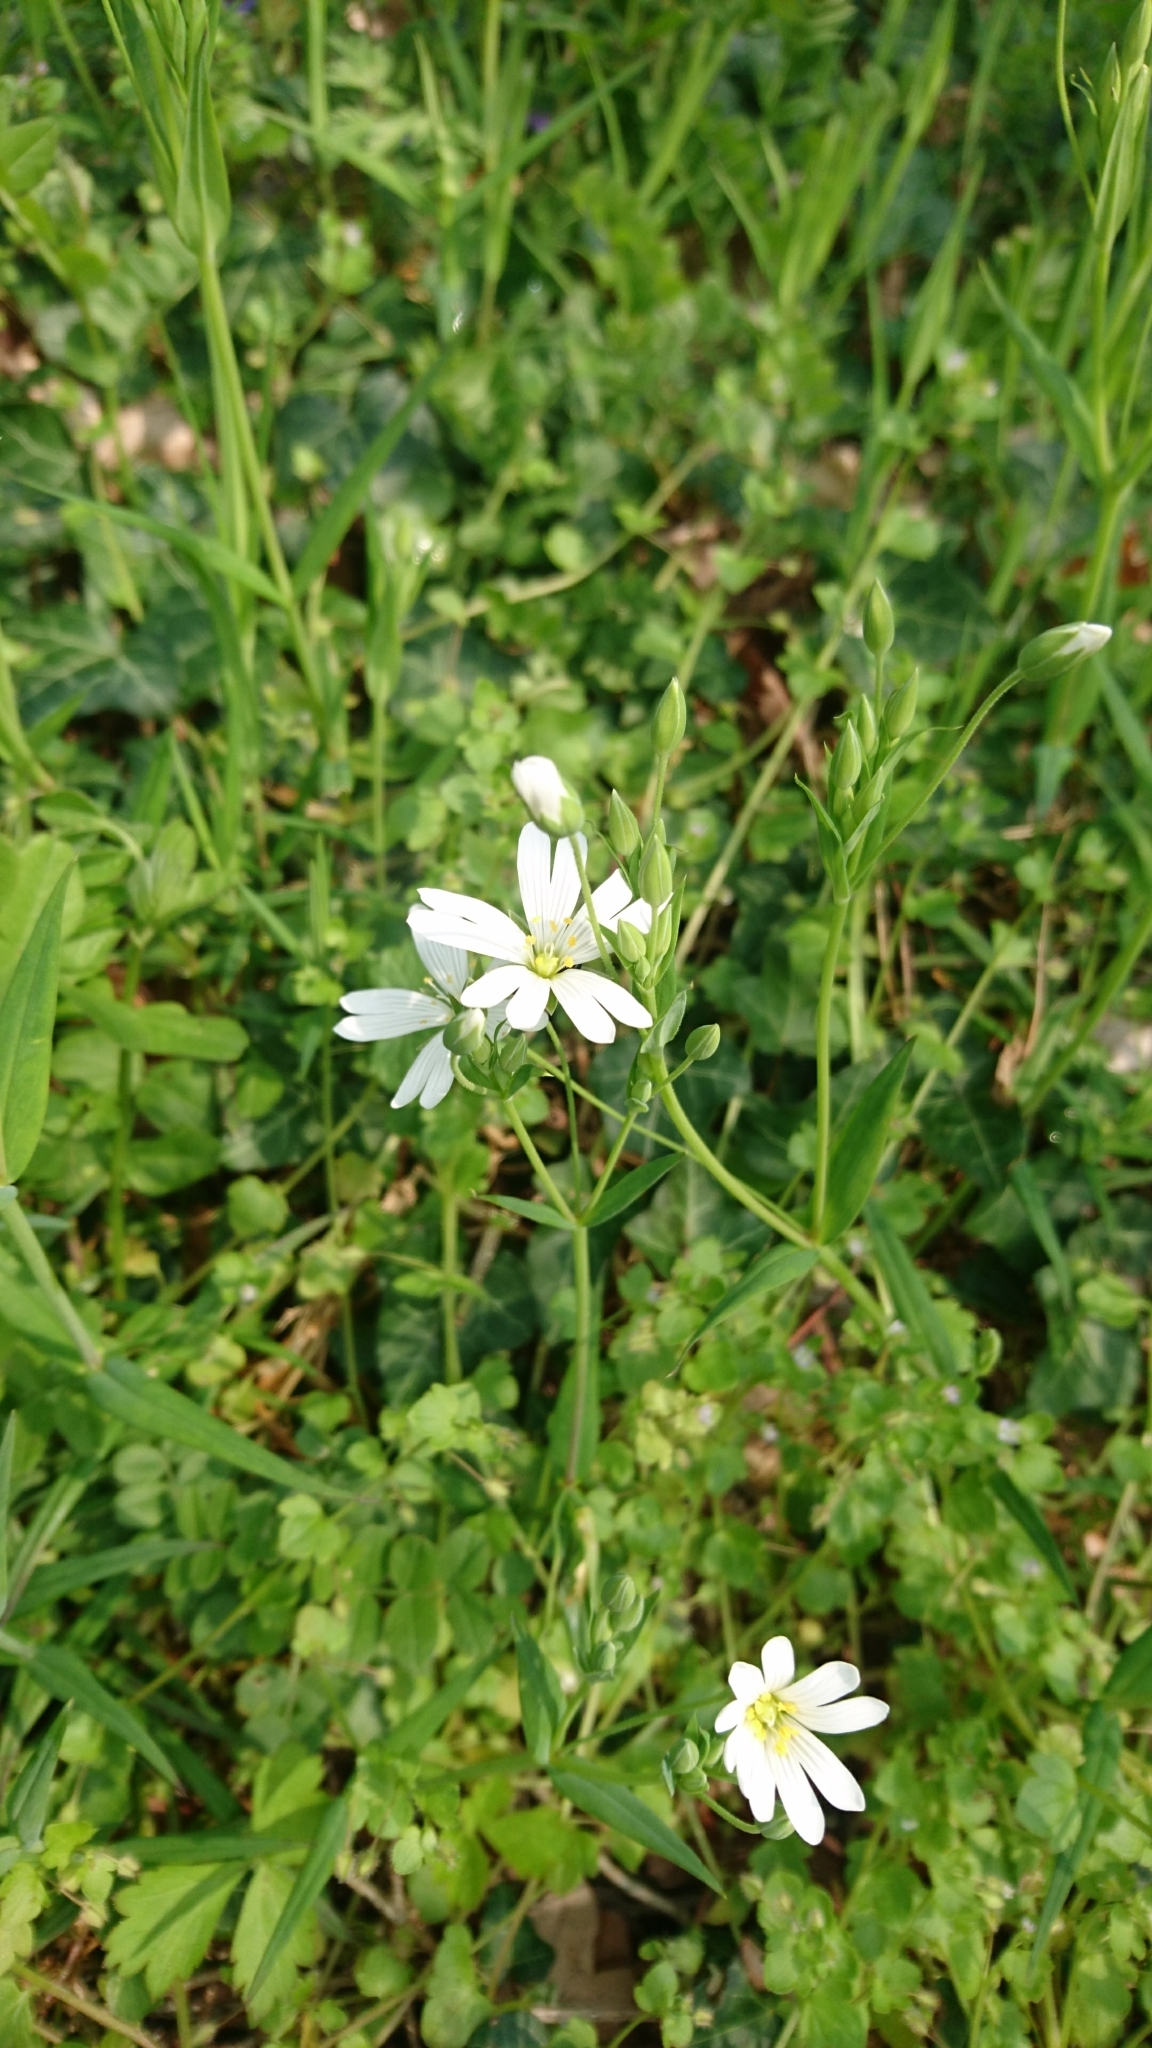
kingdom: Plantae
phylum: Tracheophyta
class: Magnoliopsida
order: Caryophyllales
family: Caryophyllaceae
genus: Rabelera
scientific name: Rabelera holostea
